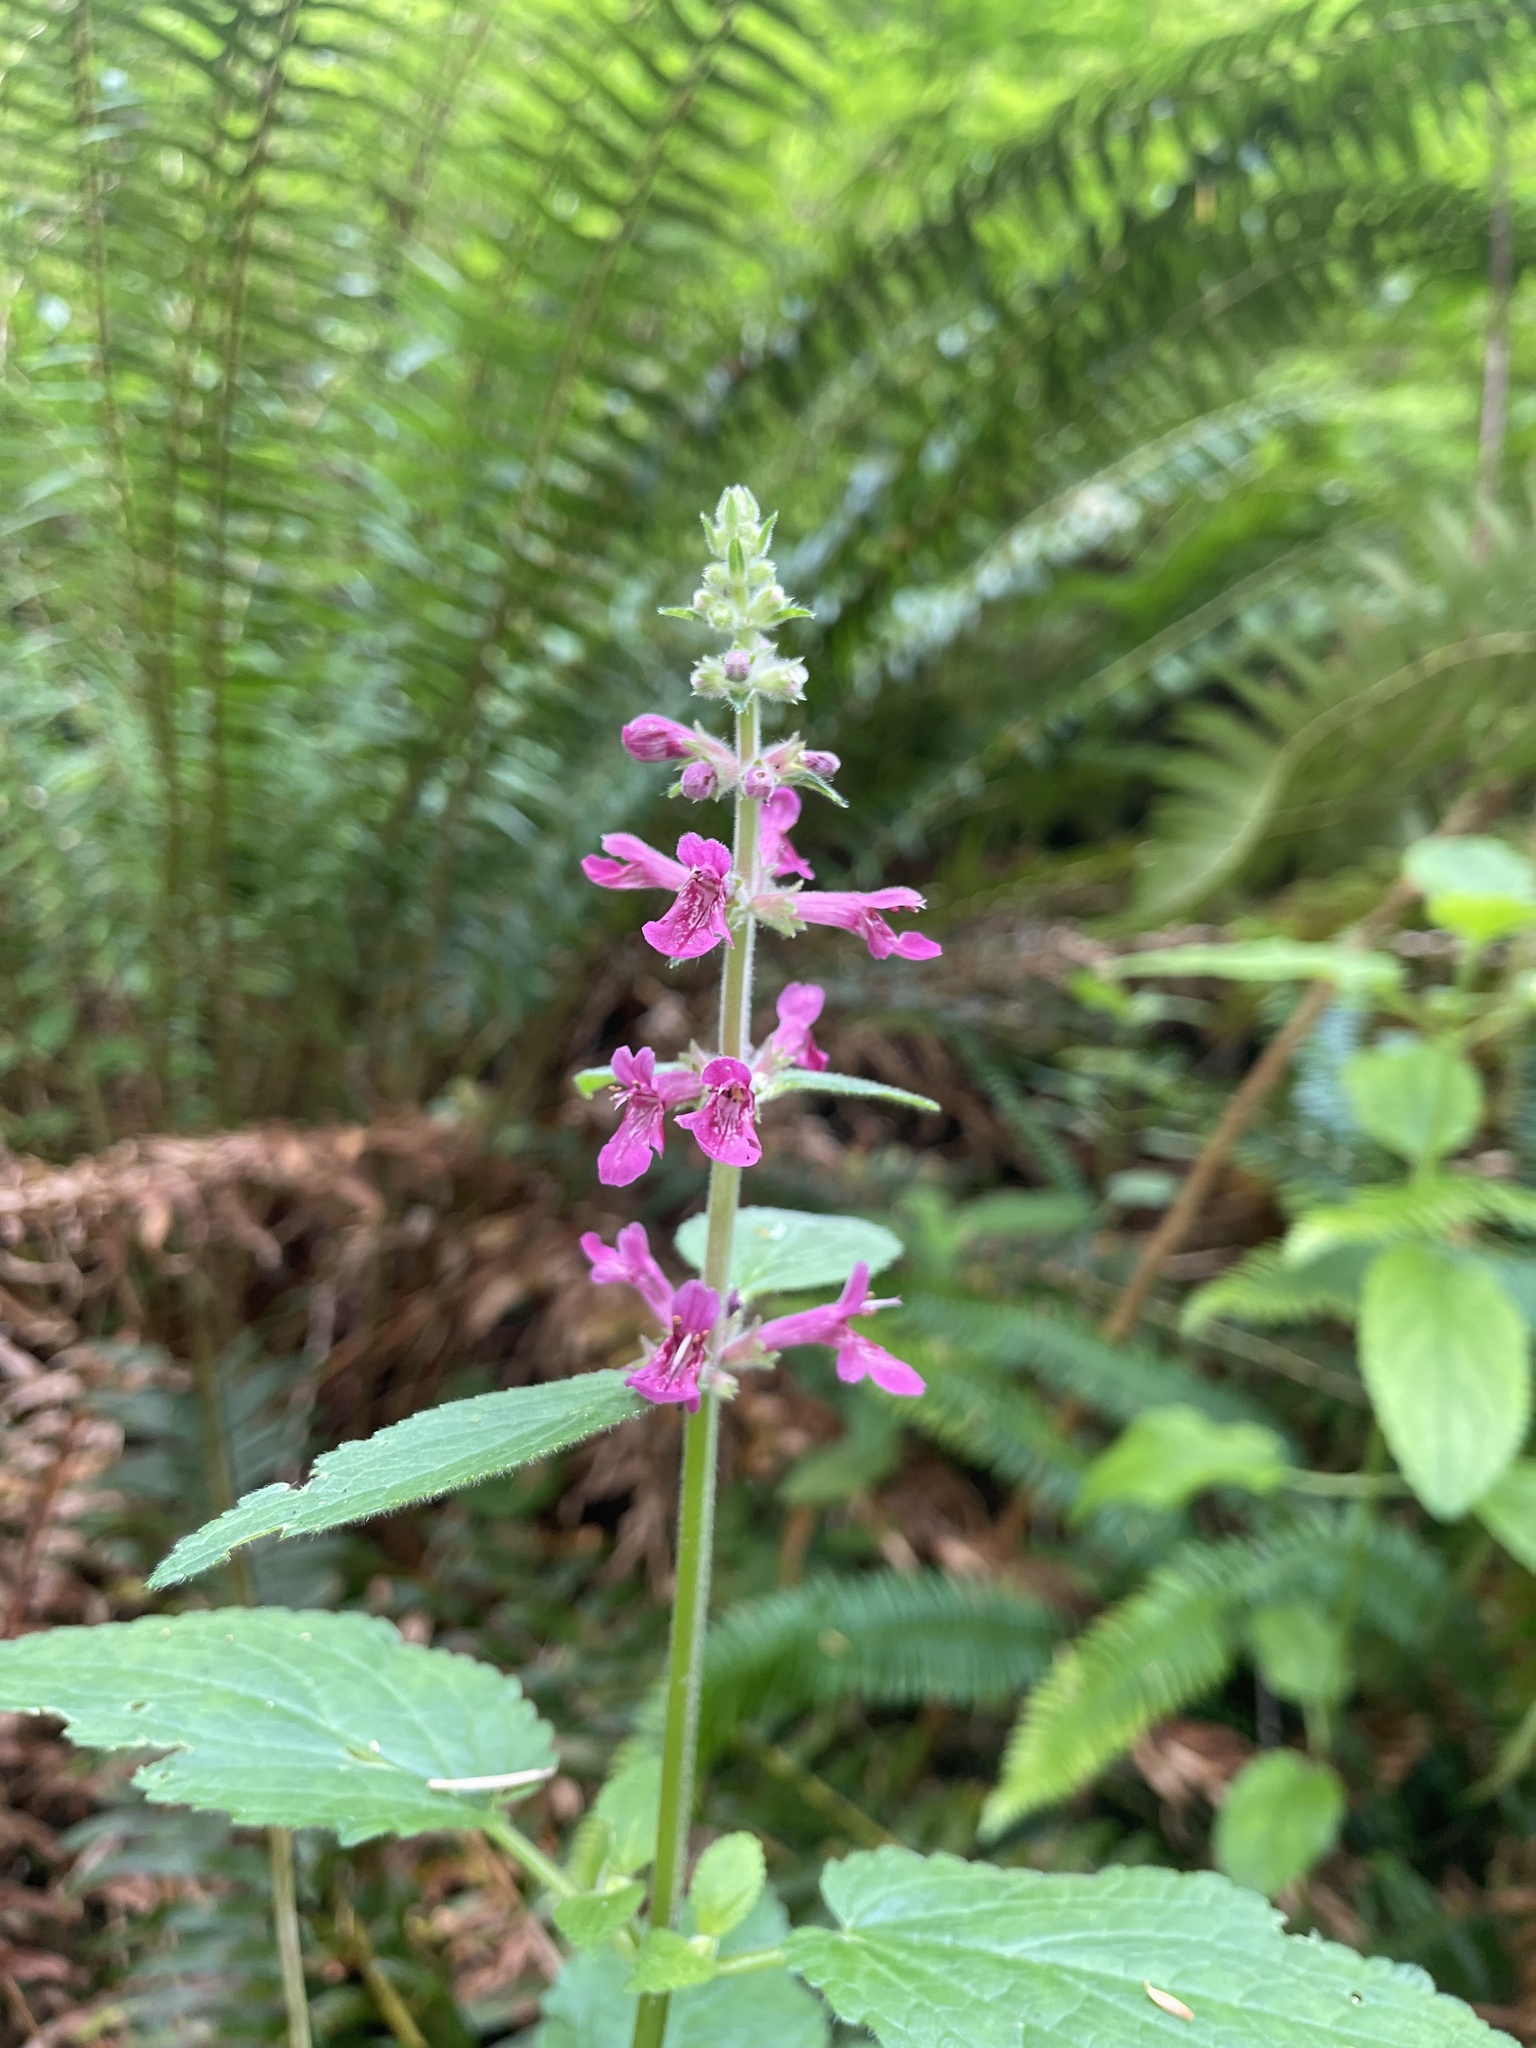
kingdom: Plantae
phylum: Tracheophyta
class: Magnoliopsida
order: Lamiales
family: Lamiaceae
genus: Stachys
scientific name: Stachys chamissonis
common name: Coastal hedge-nettle
